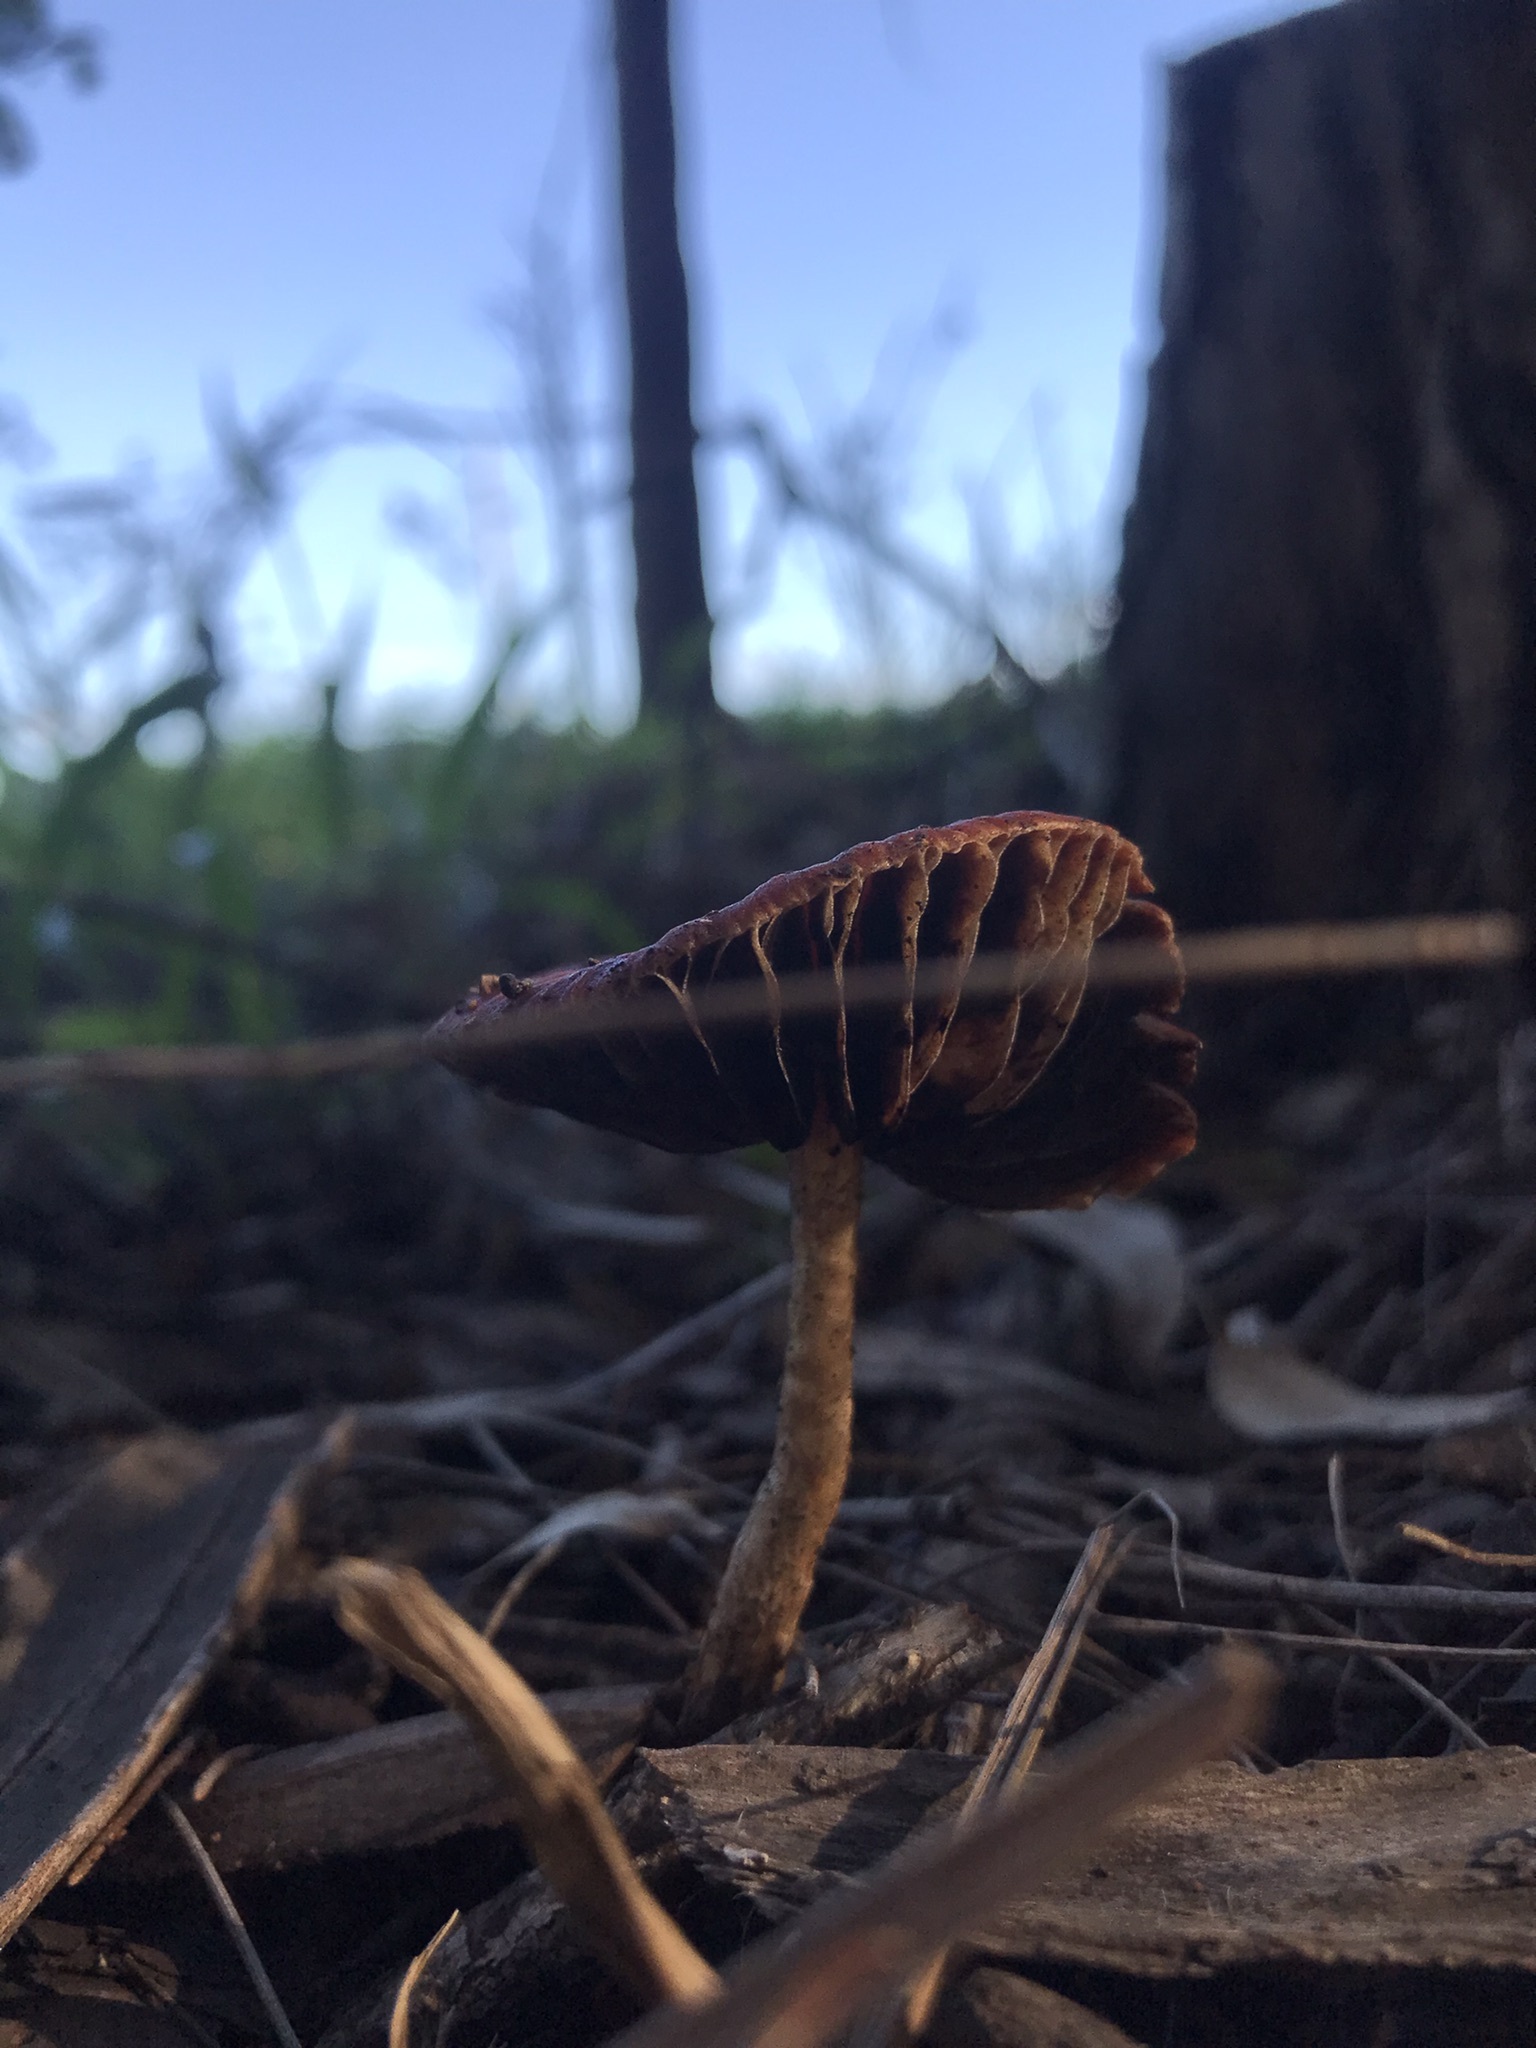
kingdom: Fungi
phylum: Basidiomycota
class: Agaricomycetes
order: Agaricales
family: Strophariaceae
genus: Leratiomyces
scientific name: Leratiomyces ceres
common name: Redlead roundhead
